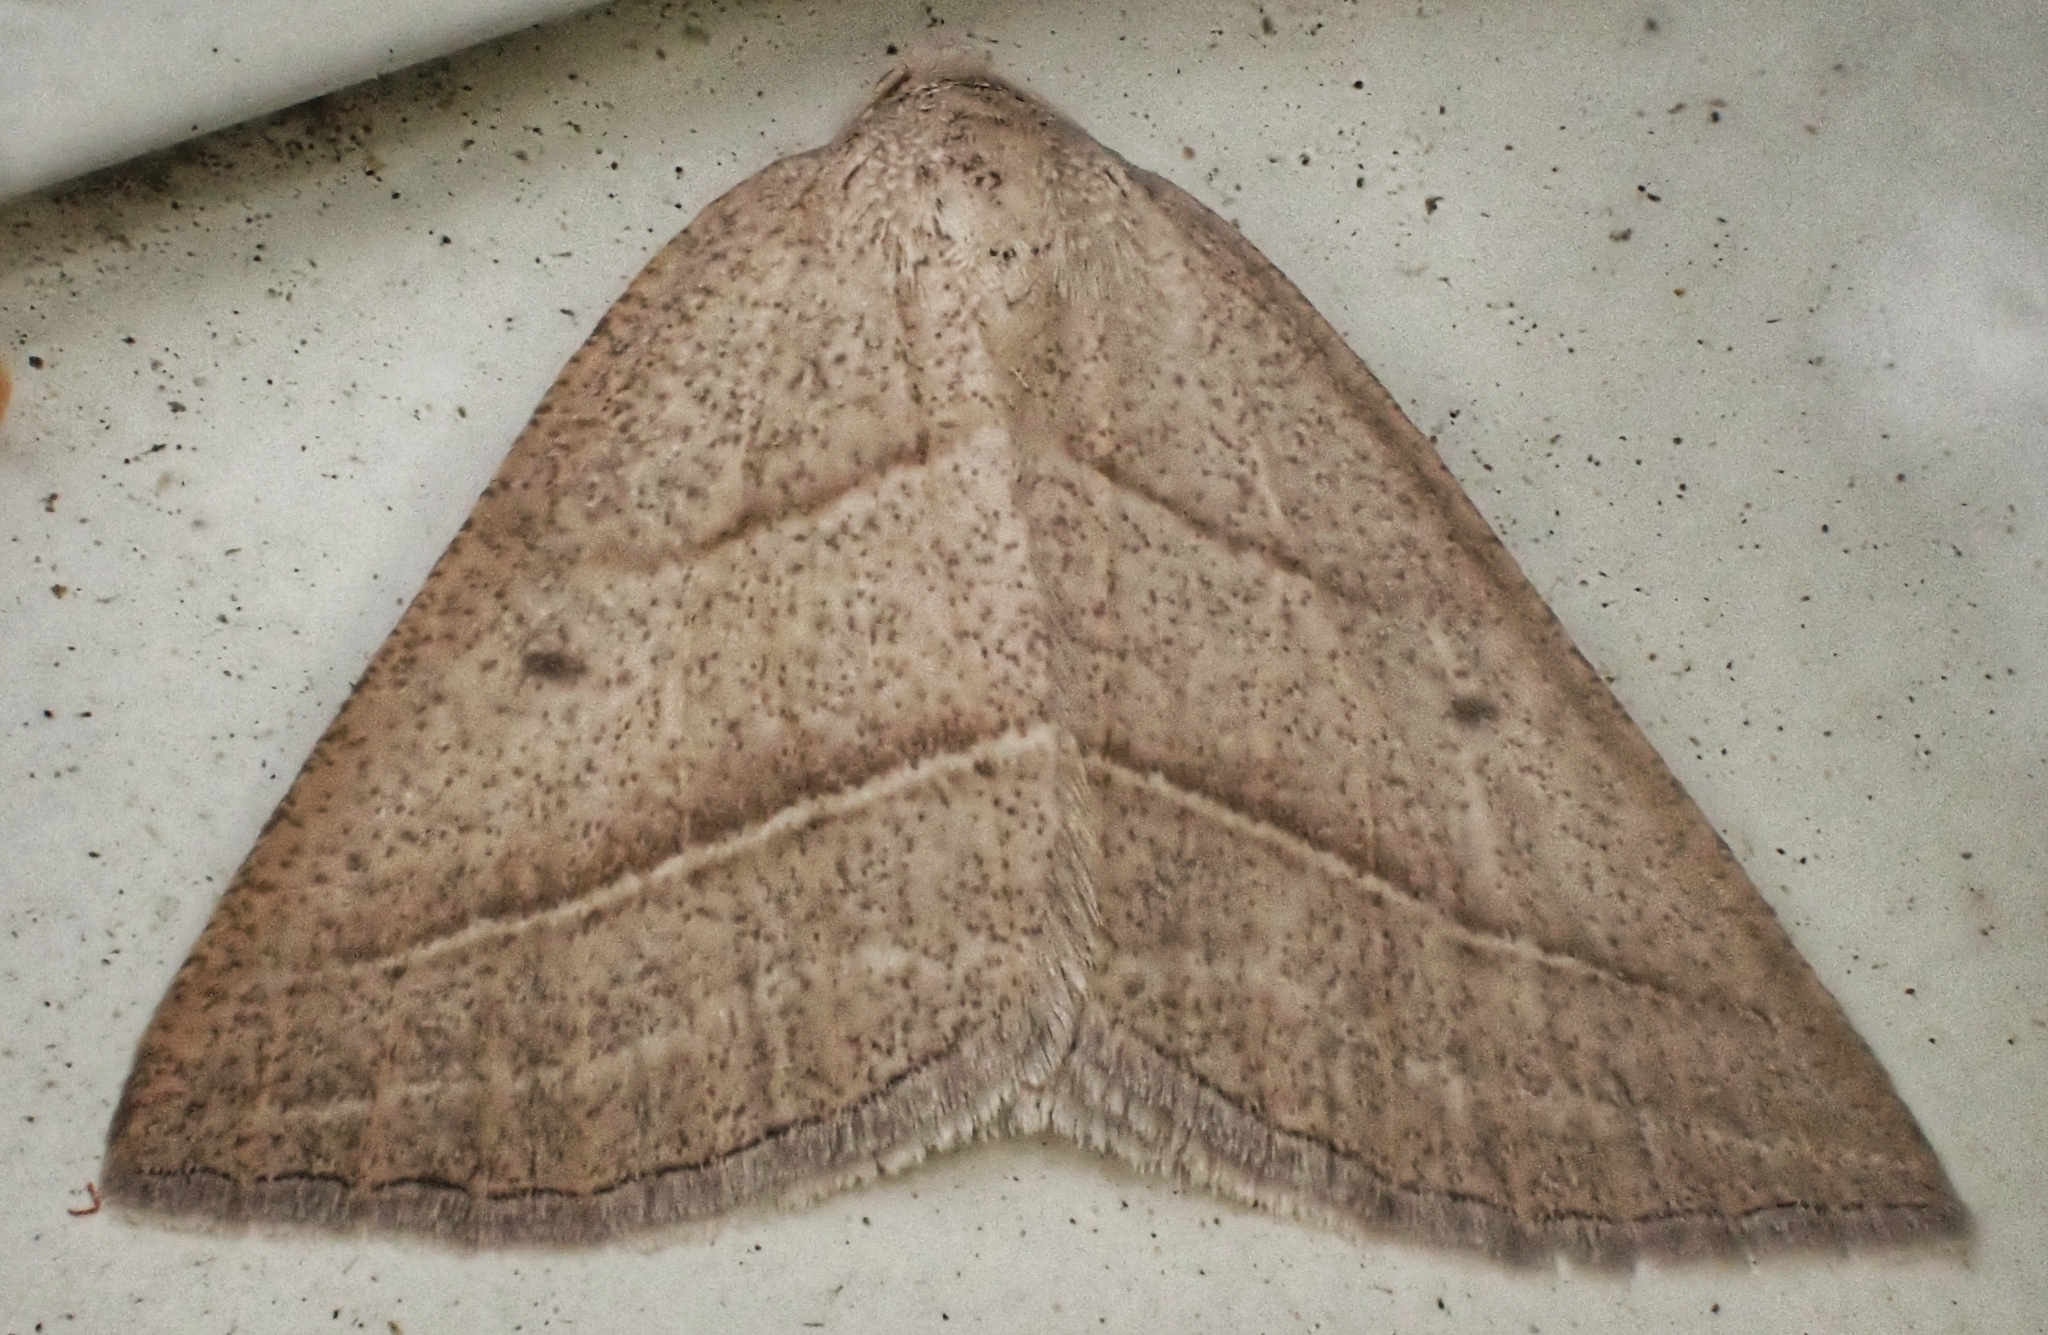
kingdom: Animalia
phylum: Arthropoda
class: Insecta
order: Lepidoptera
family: Pterophoridae
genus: Pterophorus
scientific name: Pterophorus Petrophora chlorosata
